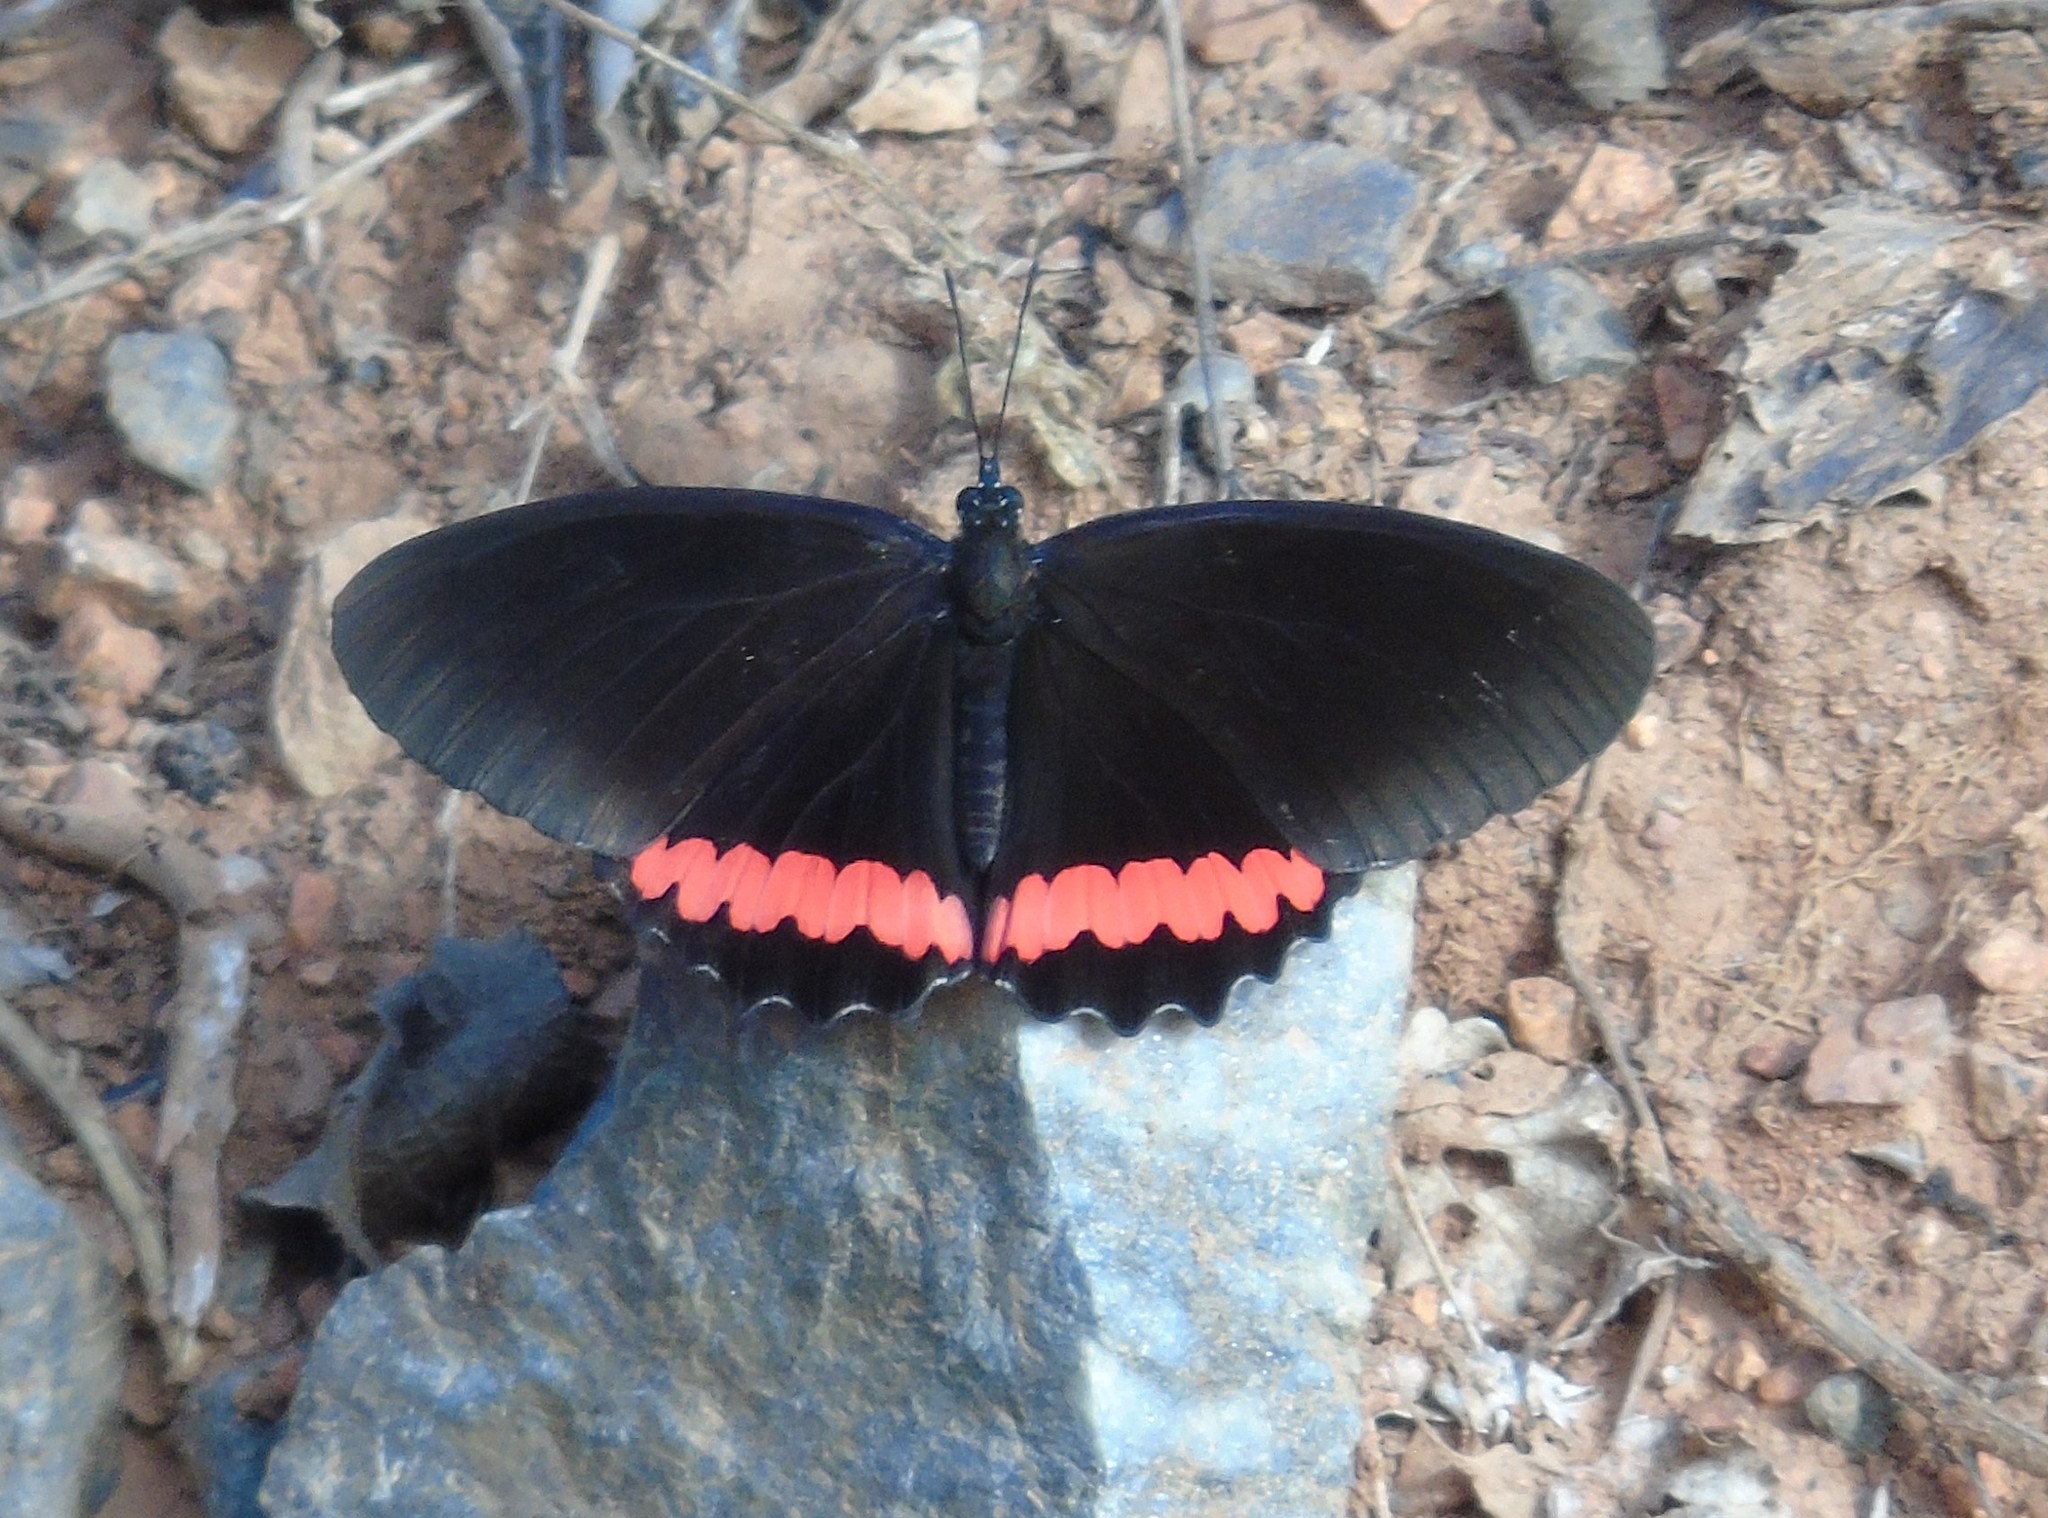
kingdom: Animalia
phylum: Arthropoda
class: Insecta
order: Lepidoptera
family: Nymphalidae
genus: Biblis
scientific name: Biblis aganisa
